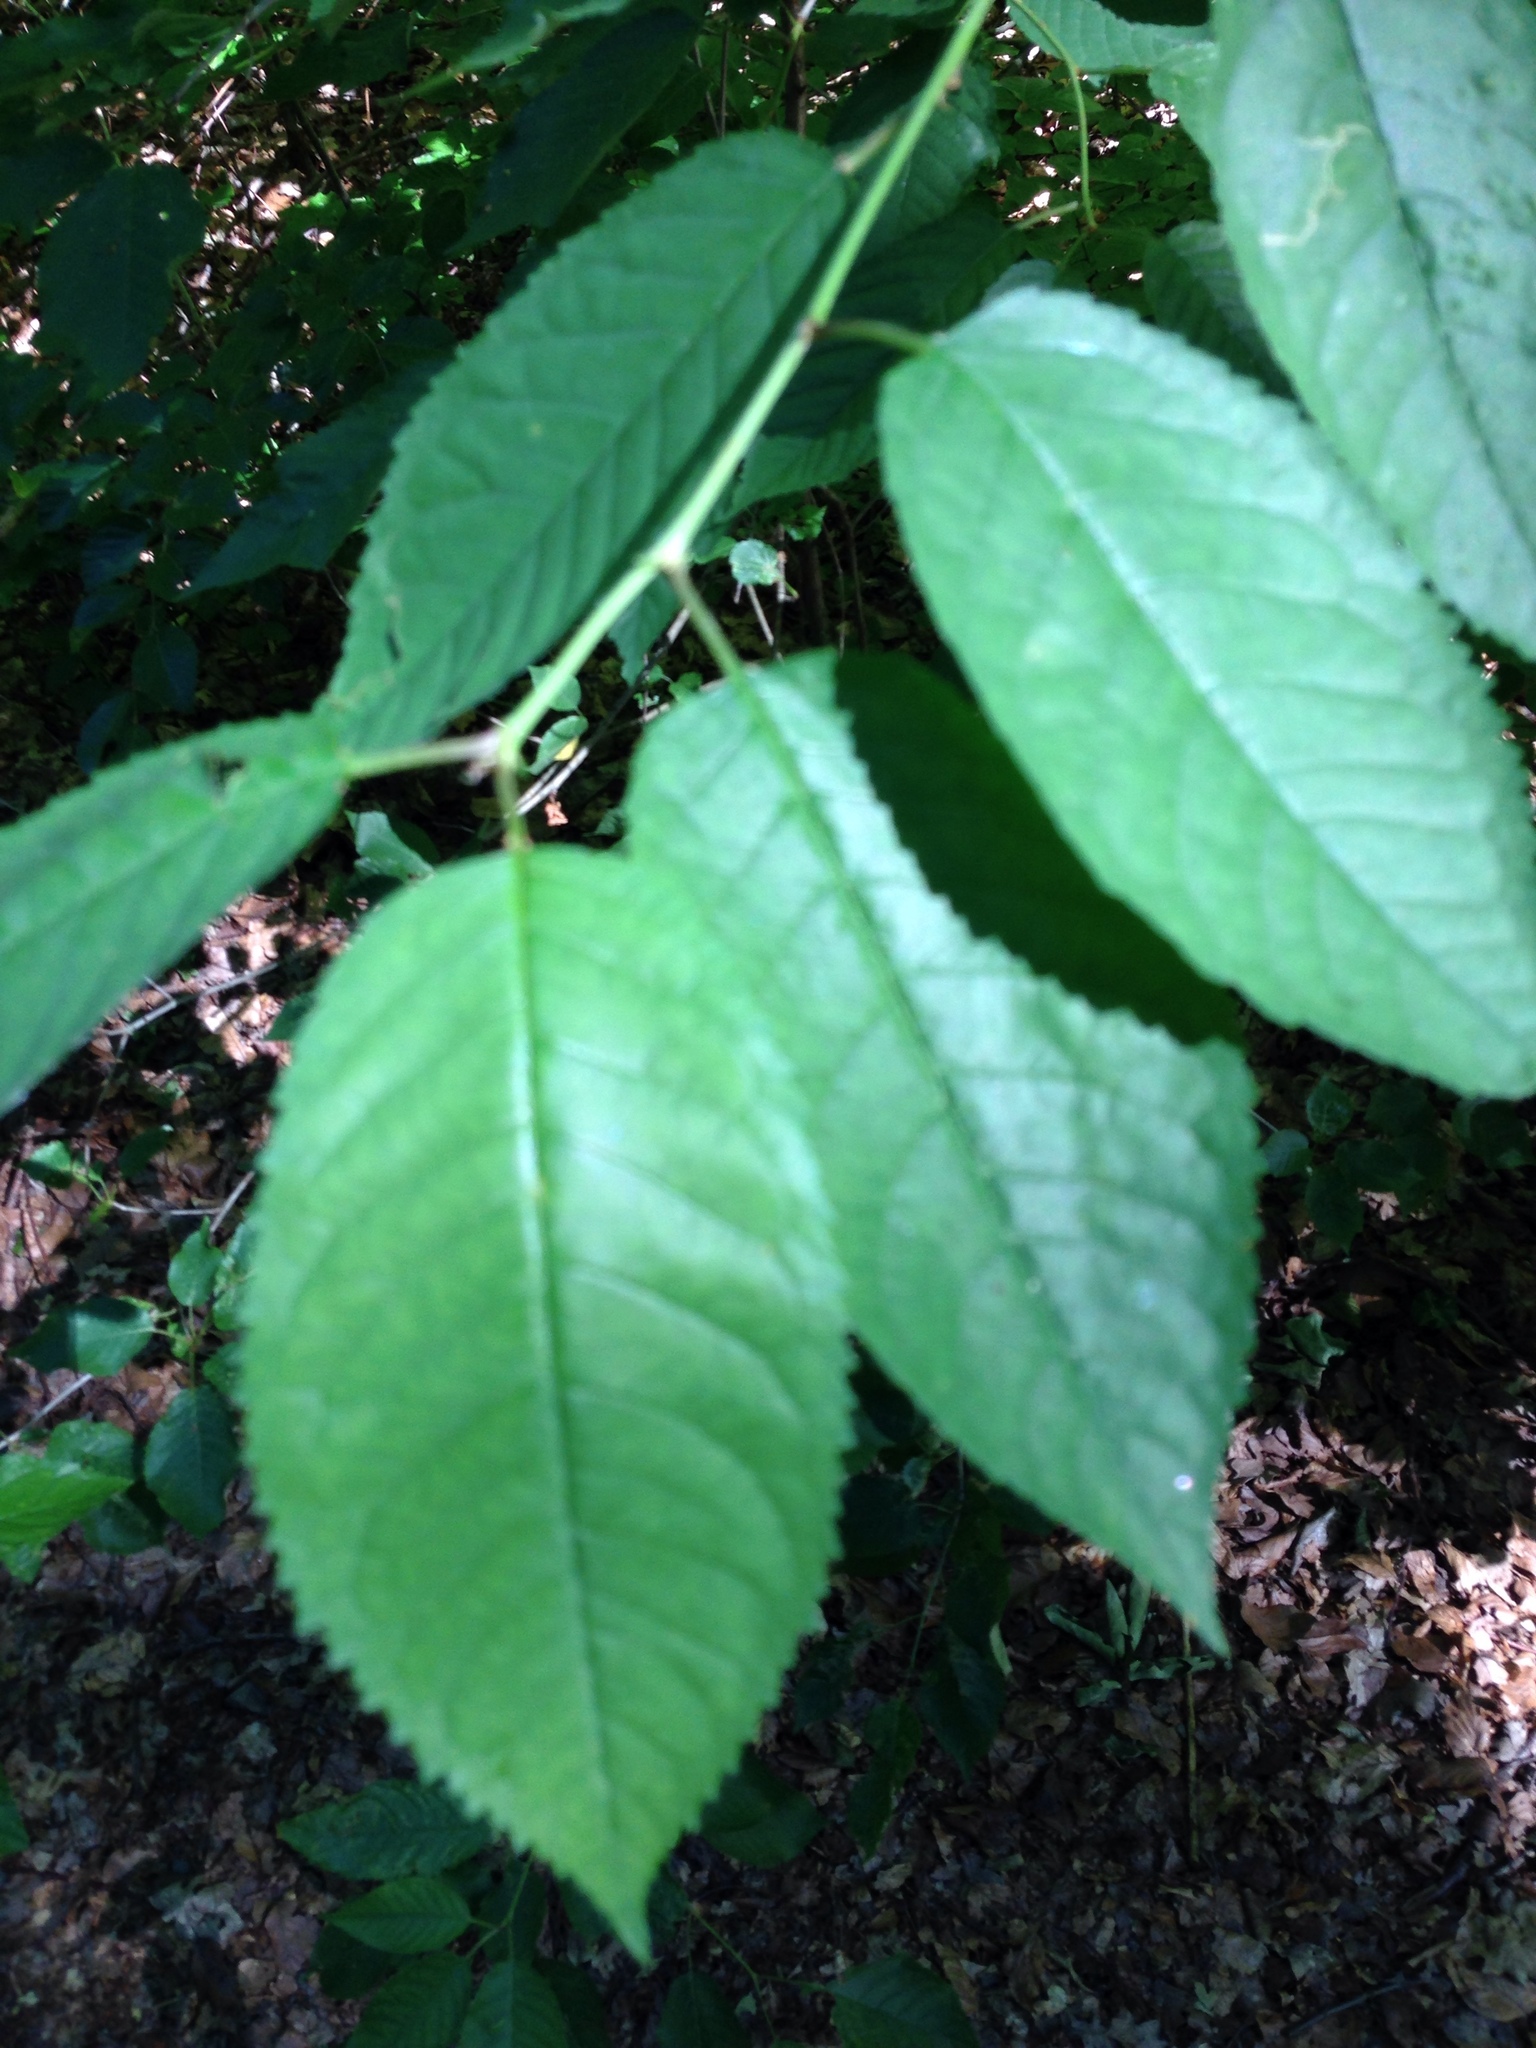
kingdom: Plantae
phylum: Tracheophyta
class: Magnoliopsida
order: Rosales
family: Rosaceae
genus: Prunus
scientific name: Prunus avium
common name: Sweet cherry
